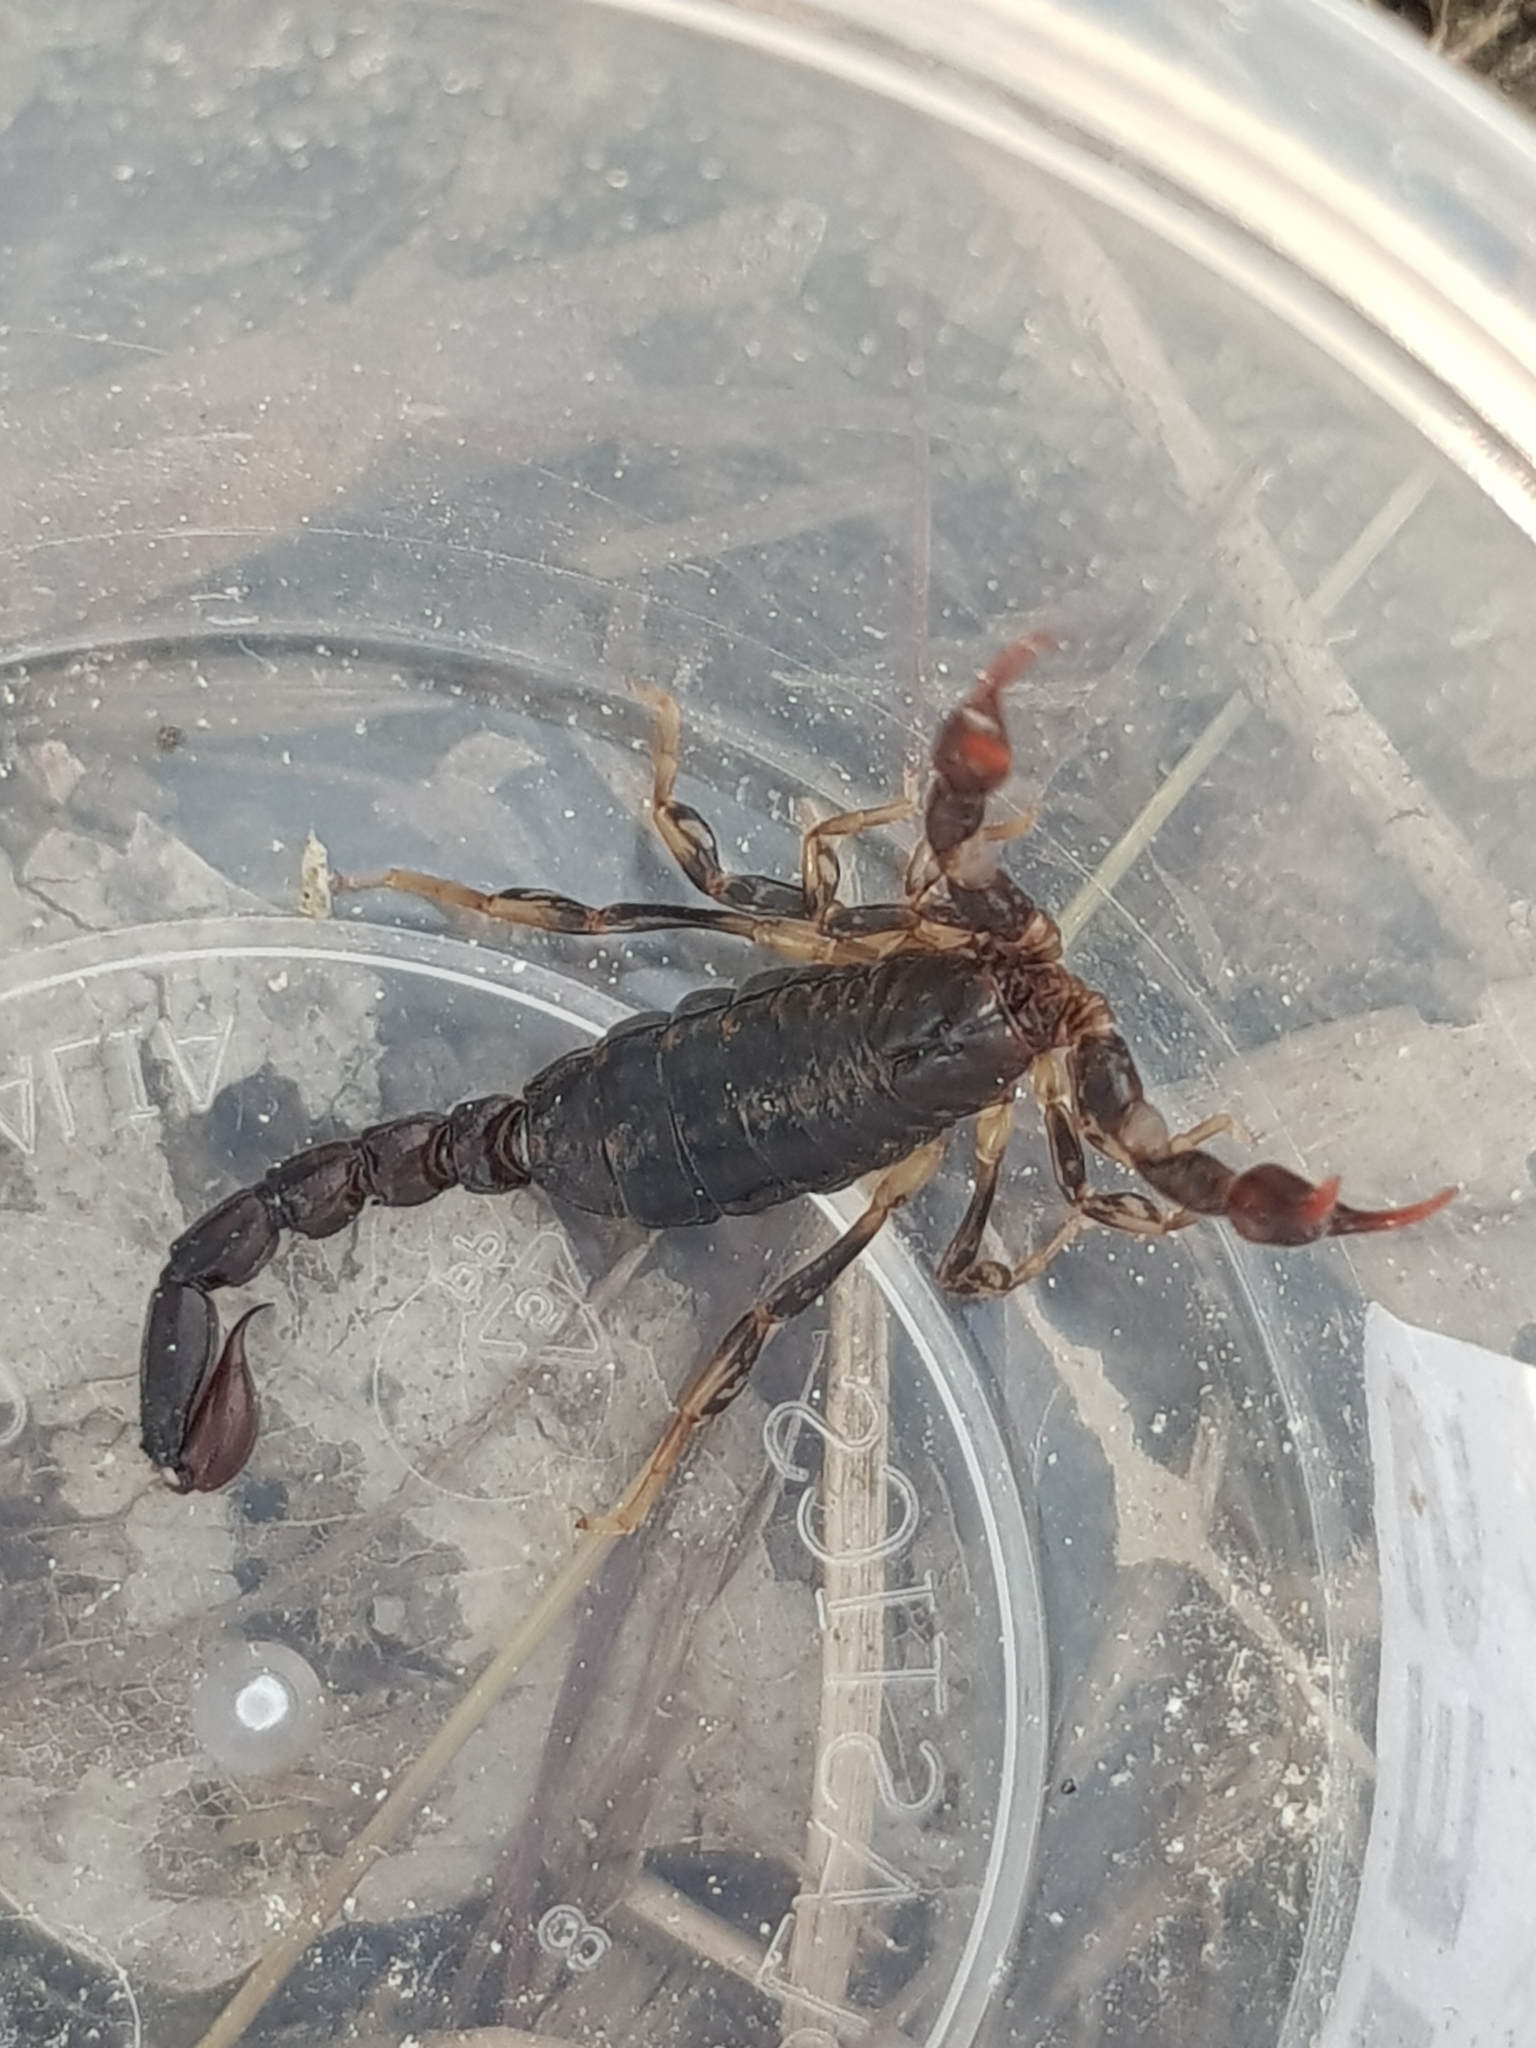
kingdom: Animalia
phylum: Arthropoda
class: Arachnida
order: Scorpiones
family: Bothriuridae
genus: Cercophonius
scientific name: Cercophonius squama
